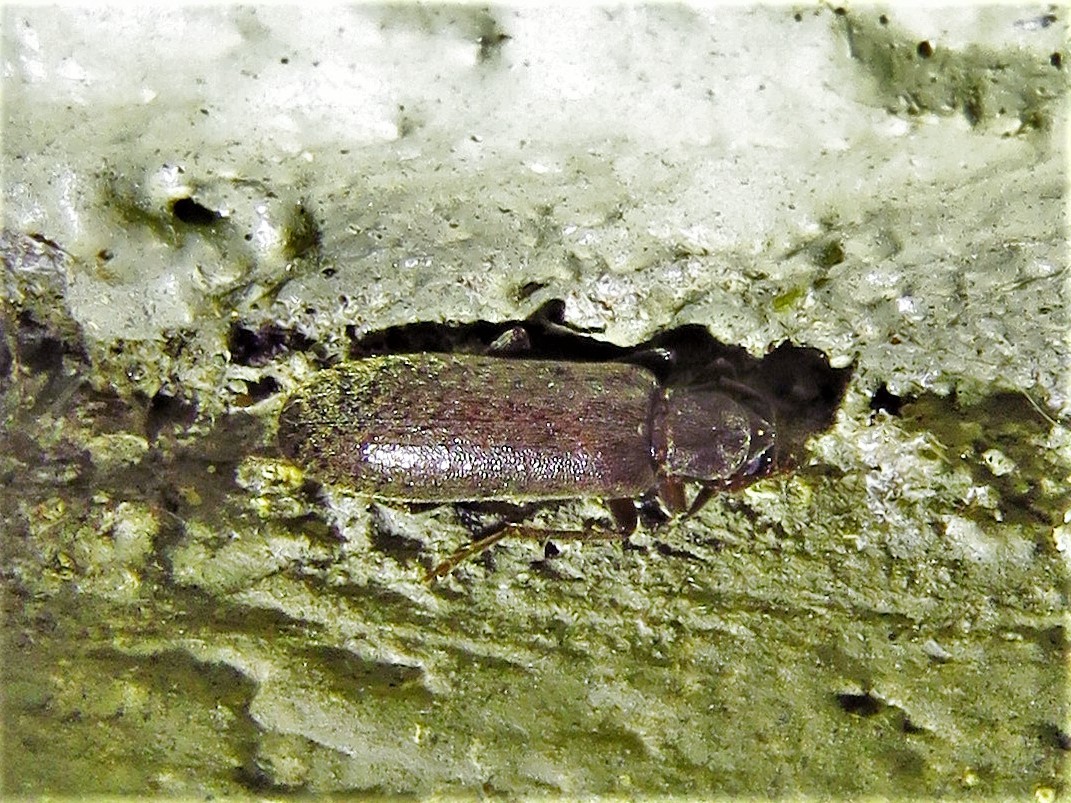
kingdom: Animalia
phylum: Arthropoda
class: Insecta
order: Coleoptera
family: Oedemeridae
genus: Sparedrus
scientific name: Sparedrus aspersus
